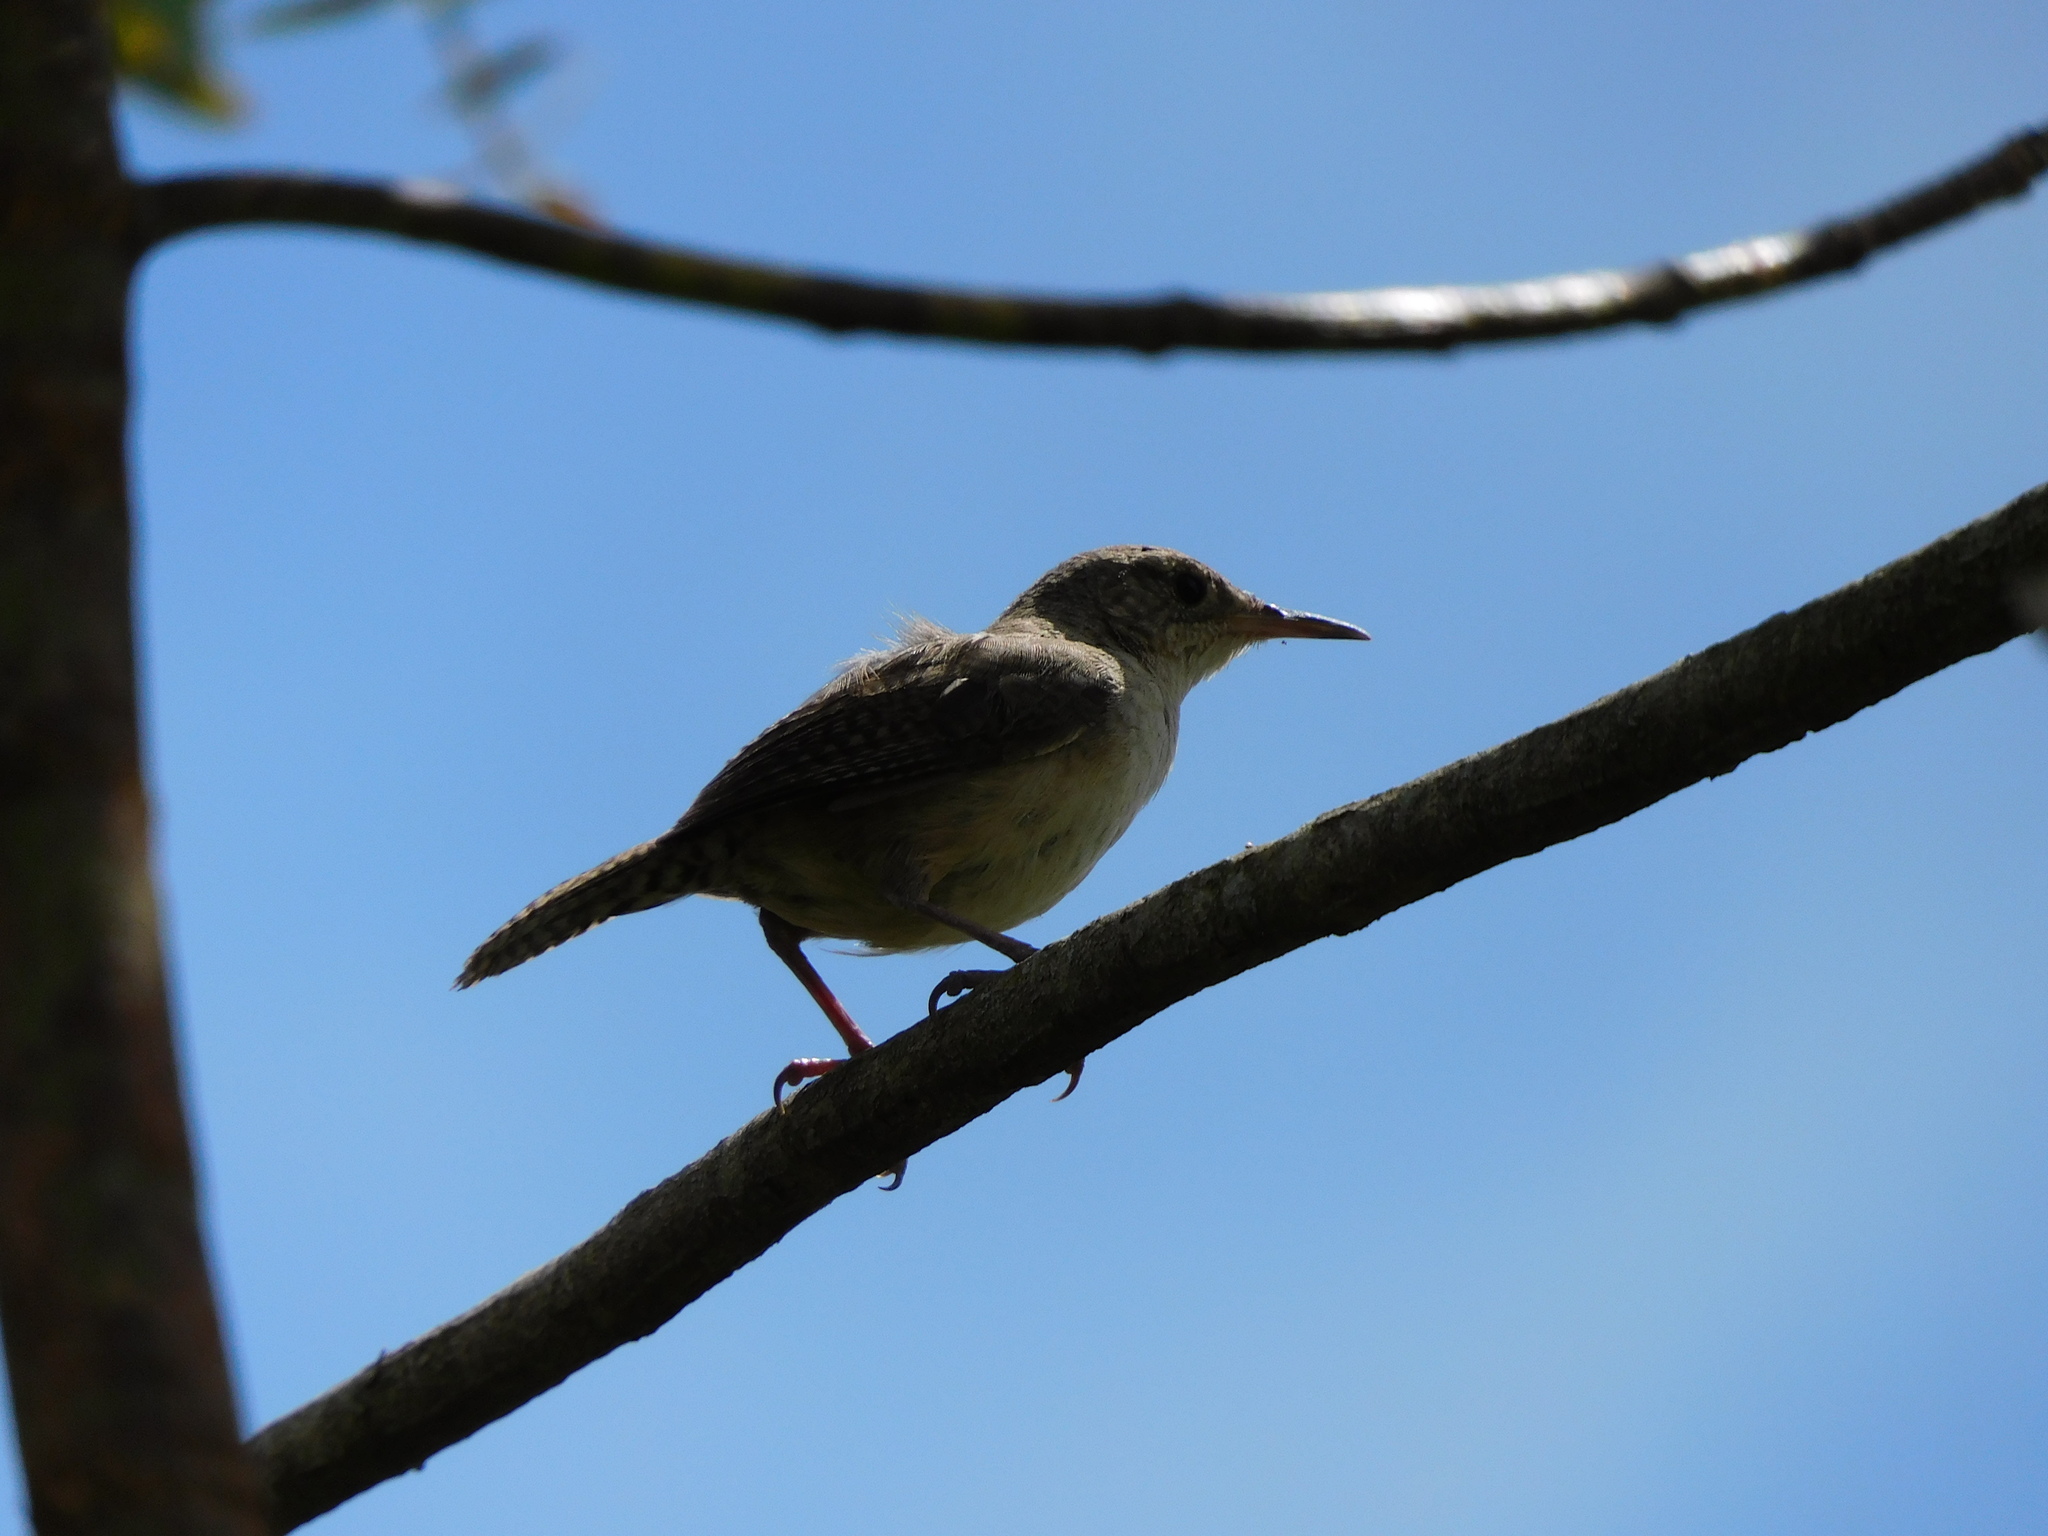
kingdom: Animalia
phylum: Chordata
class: Aves
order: Passeriformes
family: Troglodytidae
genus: Troglodytes
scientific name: Troglodytes aedon
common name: House wren
